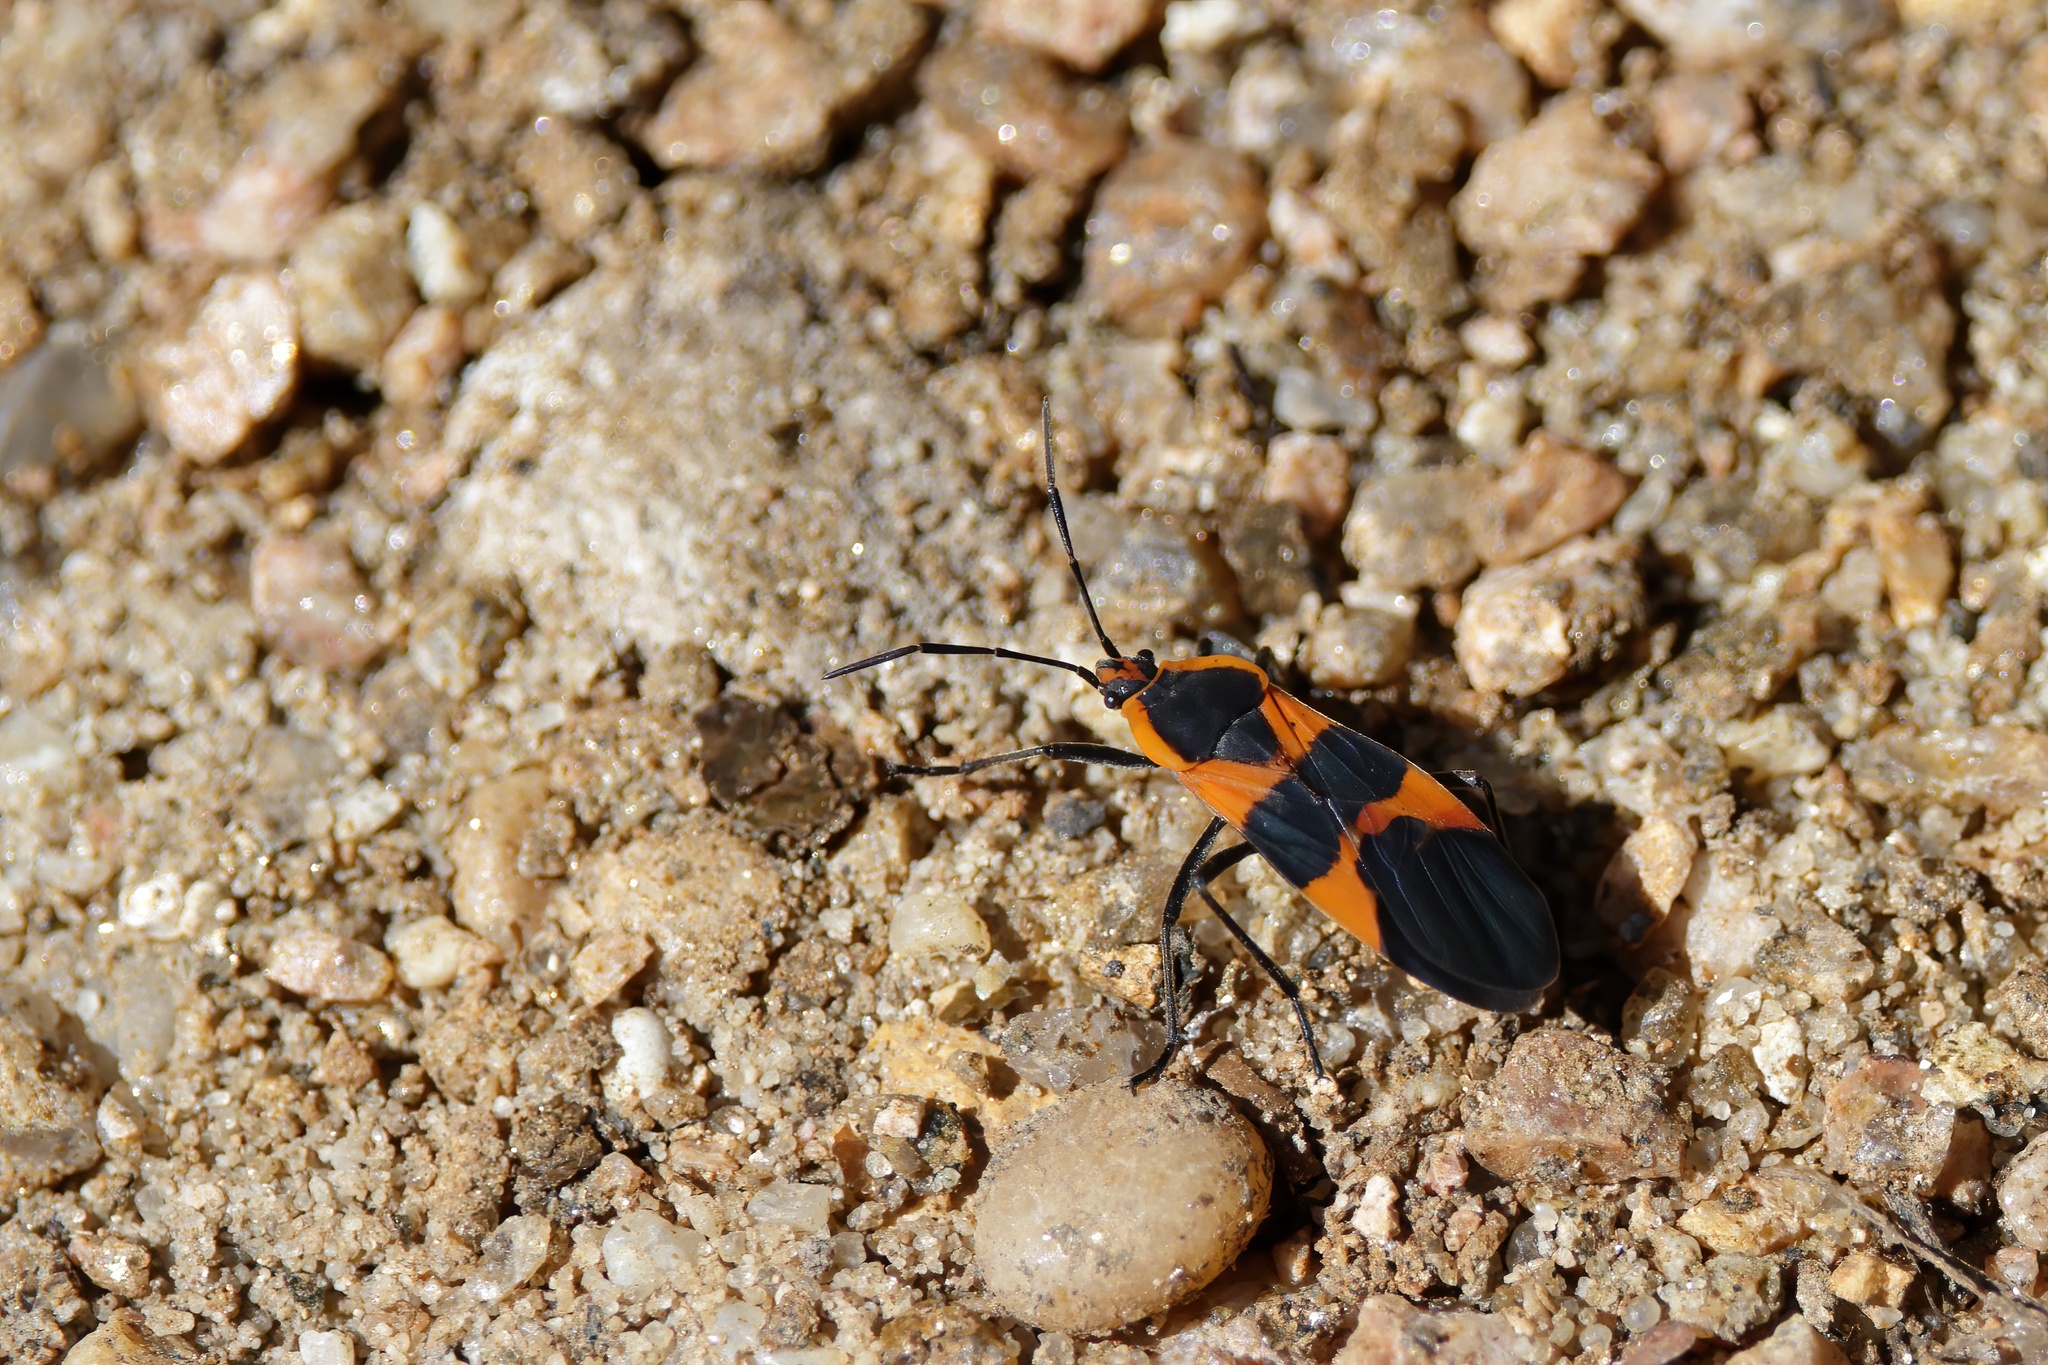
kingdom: Animalia
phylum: Arthropoda
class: Insecta
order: Hemiptera
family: Lygaeidae
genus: Oncopeltus
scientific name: Oncopeltus fasciatus
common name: Large milkweed bug
